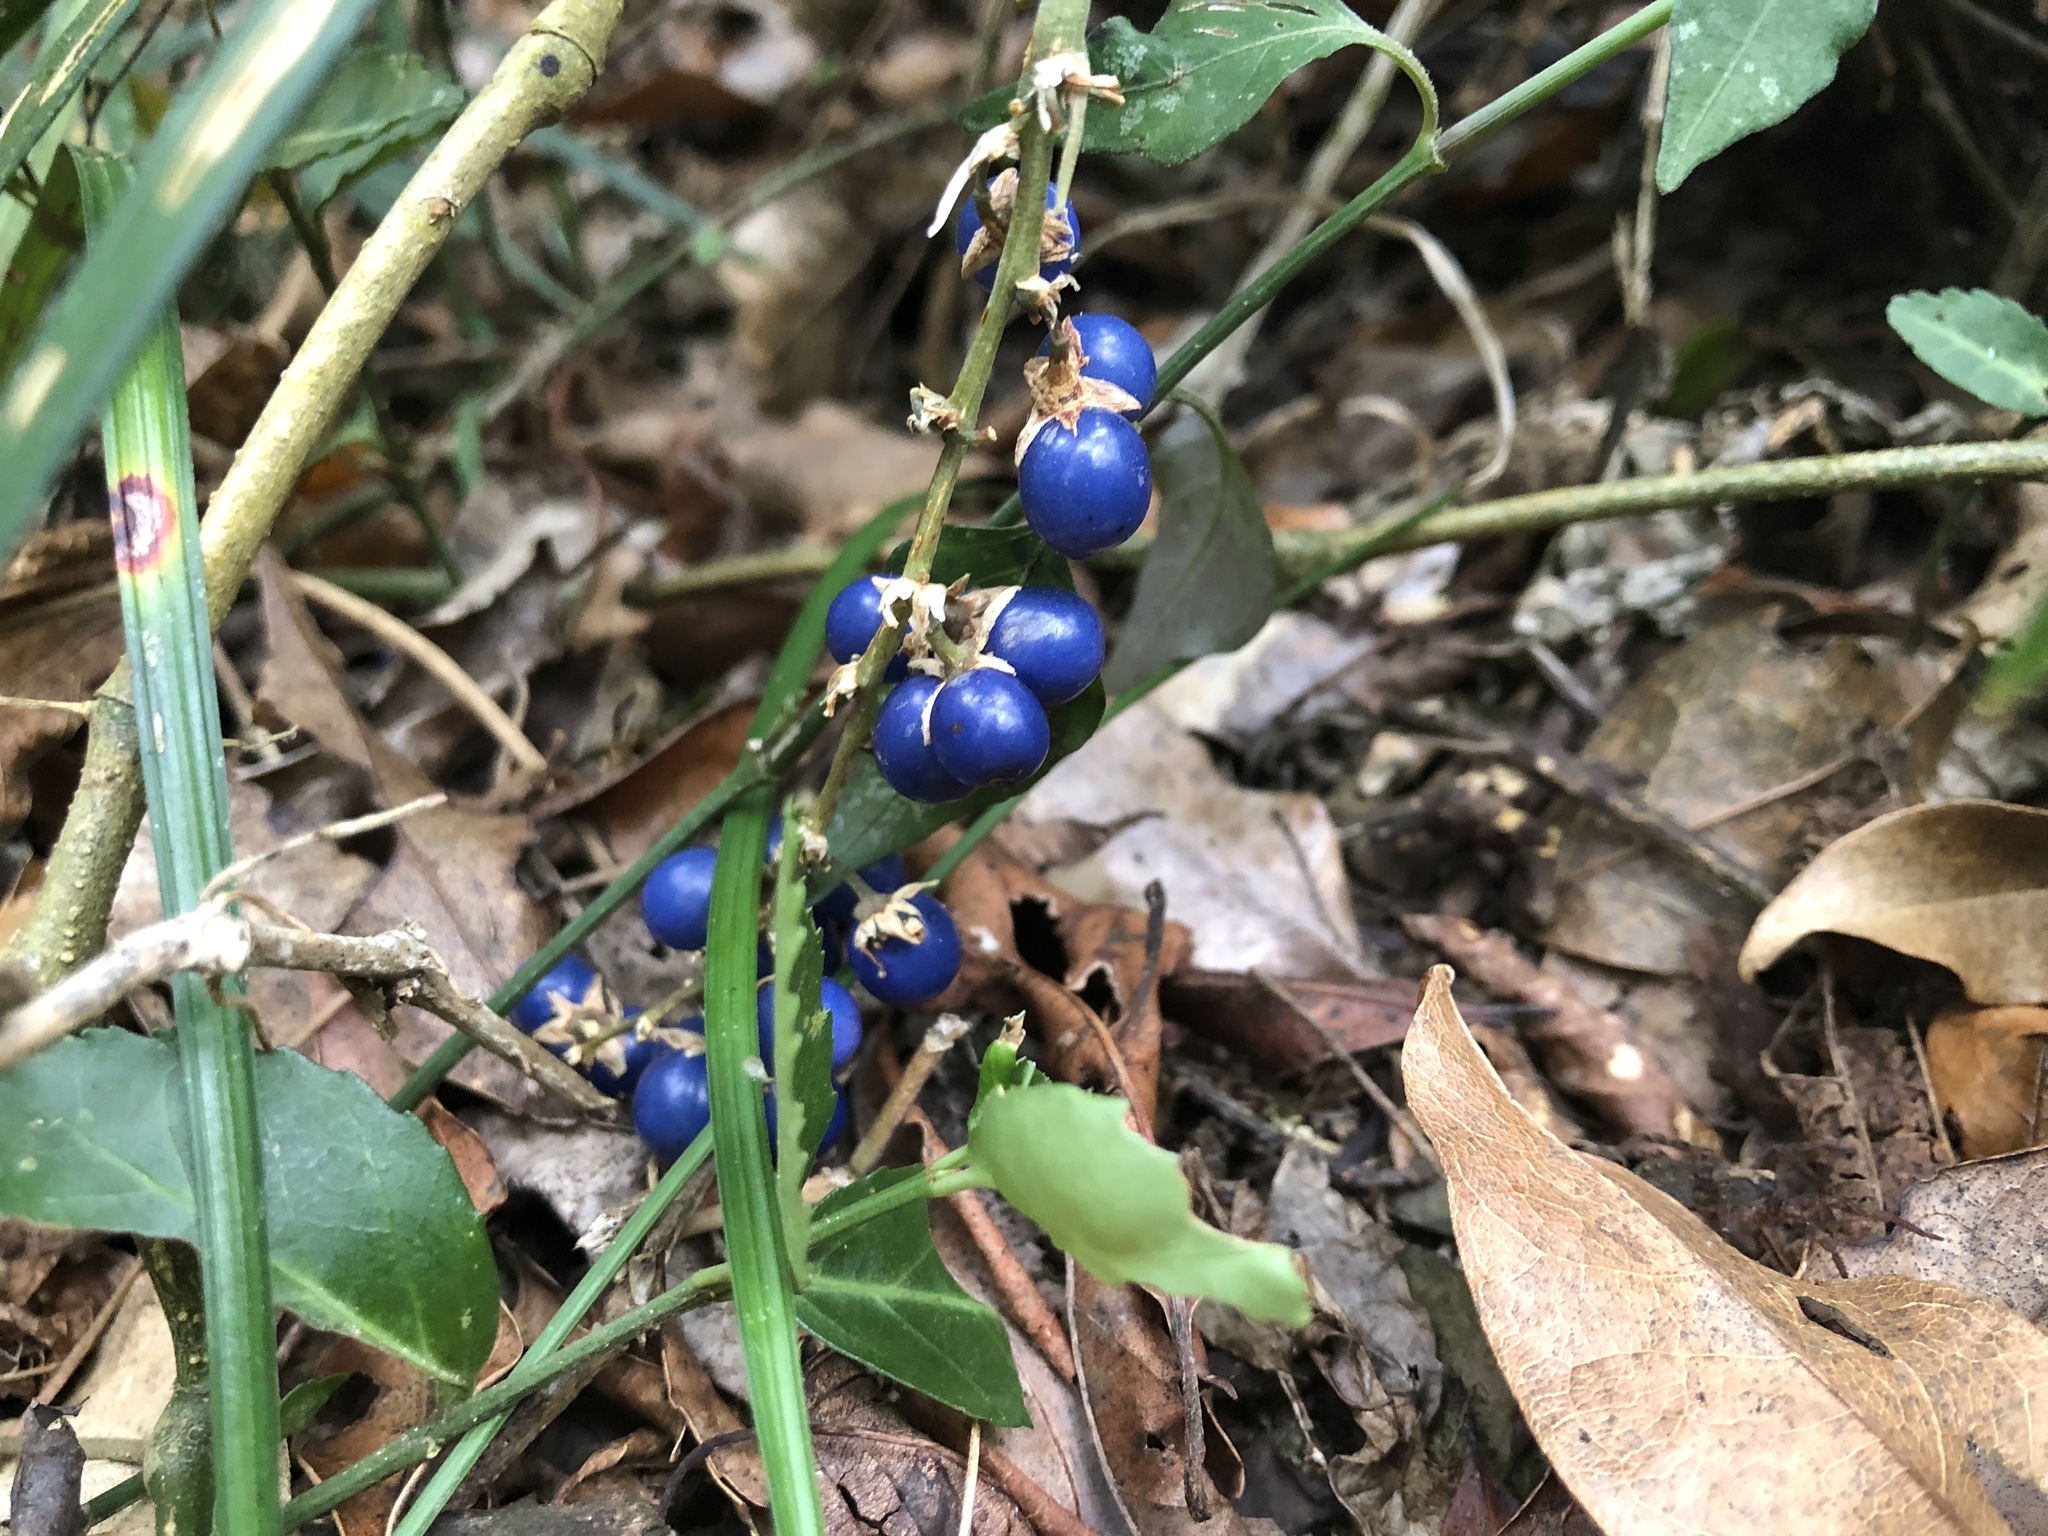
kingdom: Plantae
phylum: Tracheophyta
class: Liliopsida
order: Asparagales
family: Asparagaceae
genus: Ophiopogon
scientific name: Ophiopogon reversus
